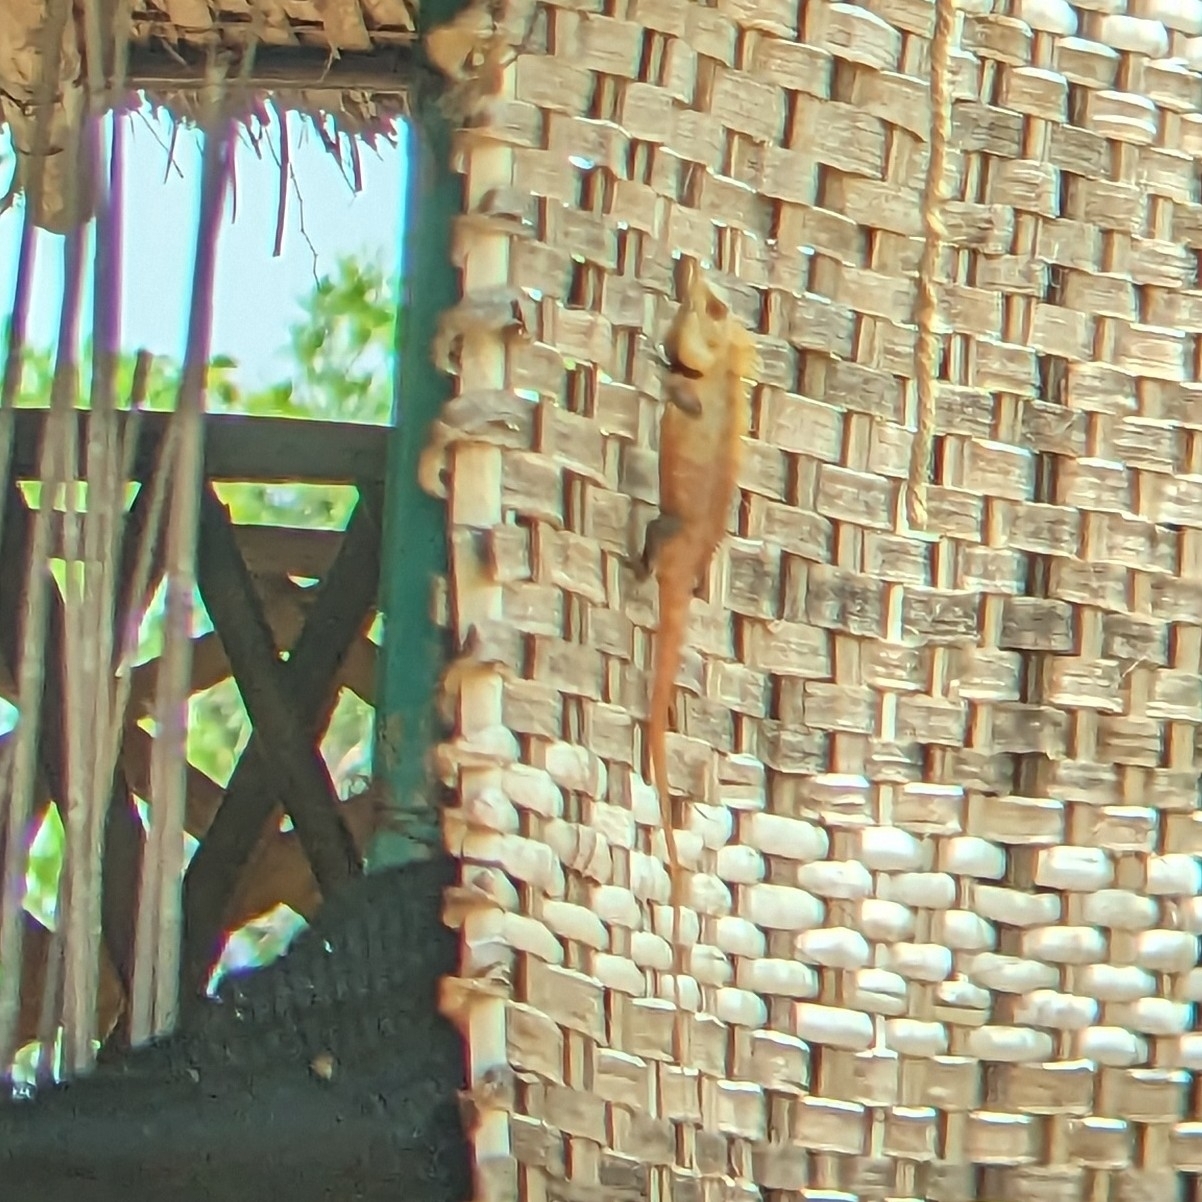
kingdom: Animalia
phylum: Chordata
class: Squamata
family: Agamidae
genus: Calotes
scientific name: Calotes versicolor
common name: Oriental garden lizard
